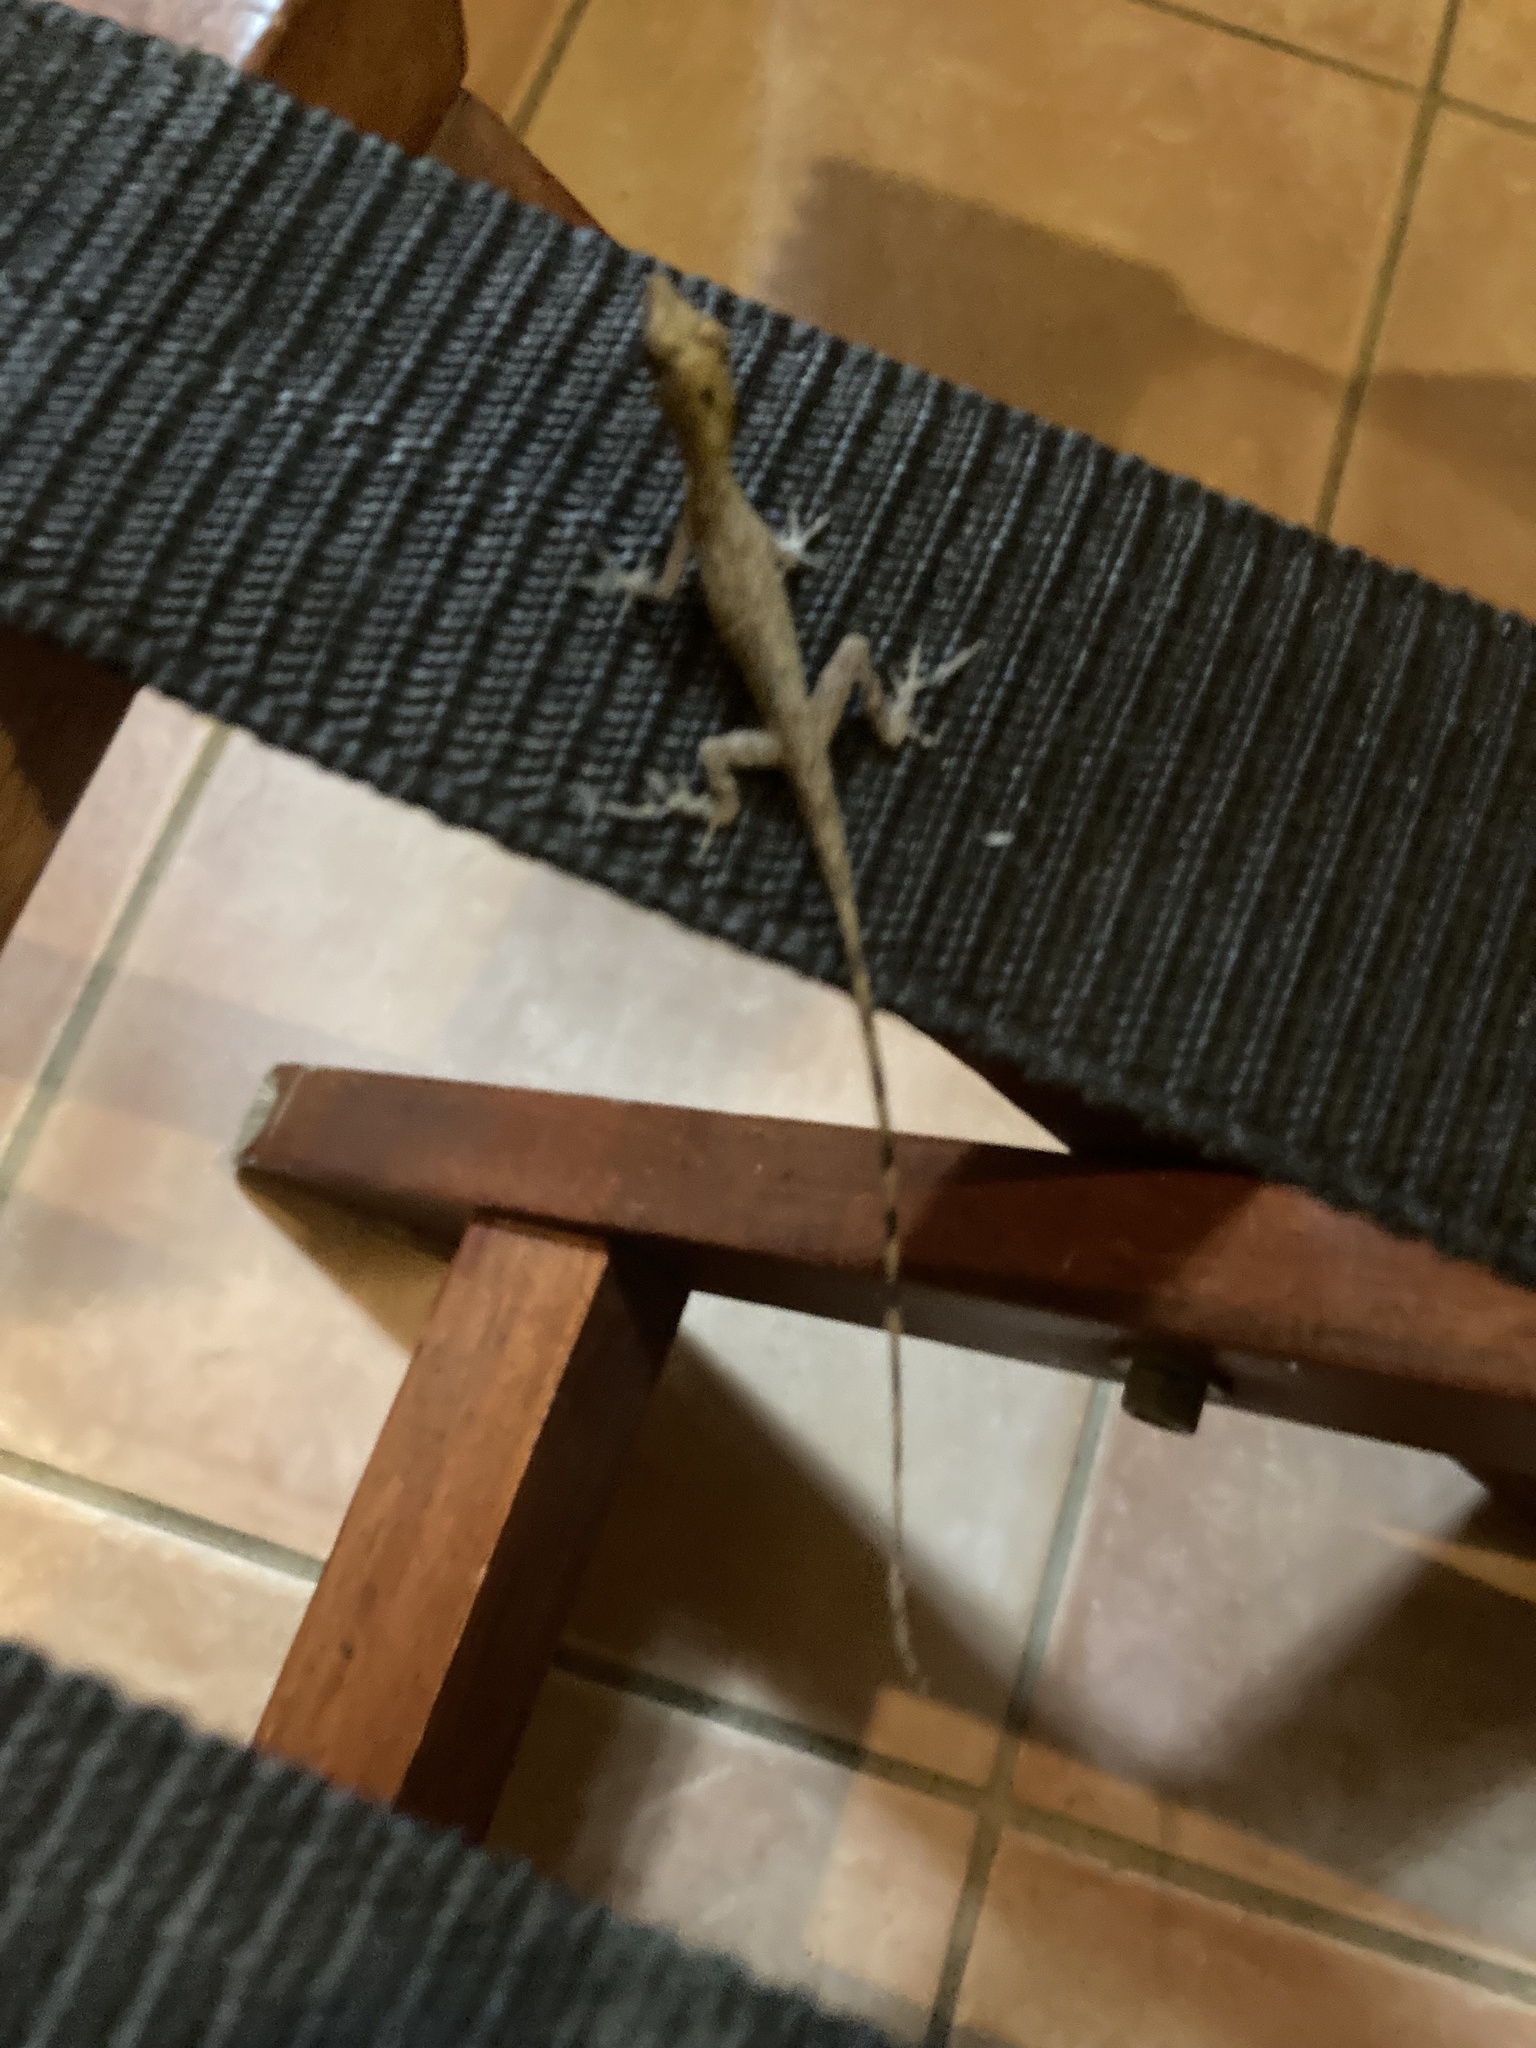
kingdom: Animalia
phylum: Chordata
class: Squamata
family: Dactyloidae
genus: Anolis
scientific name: Anolis limifrons
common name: Border anole
